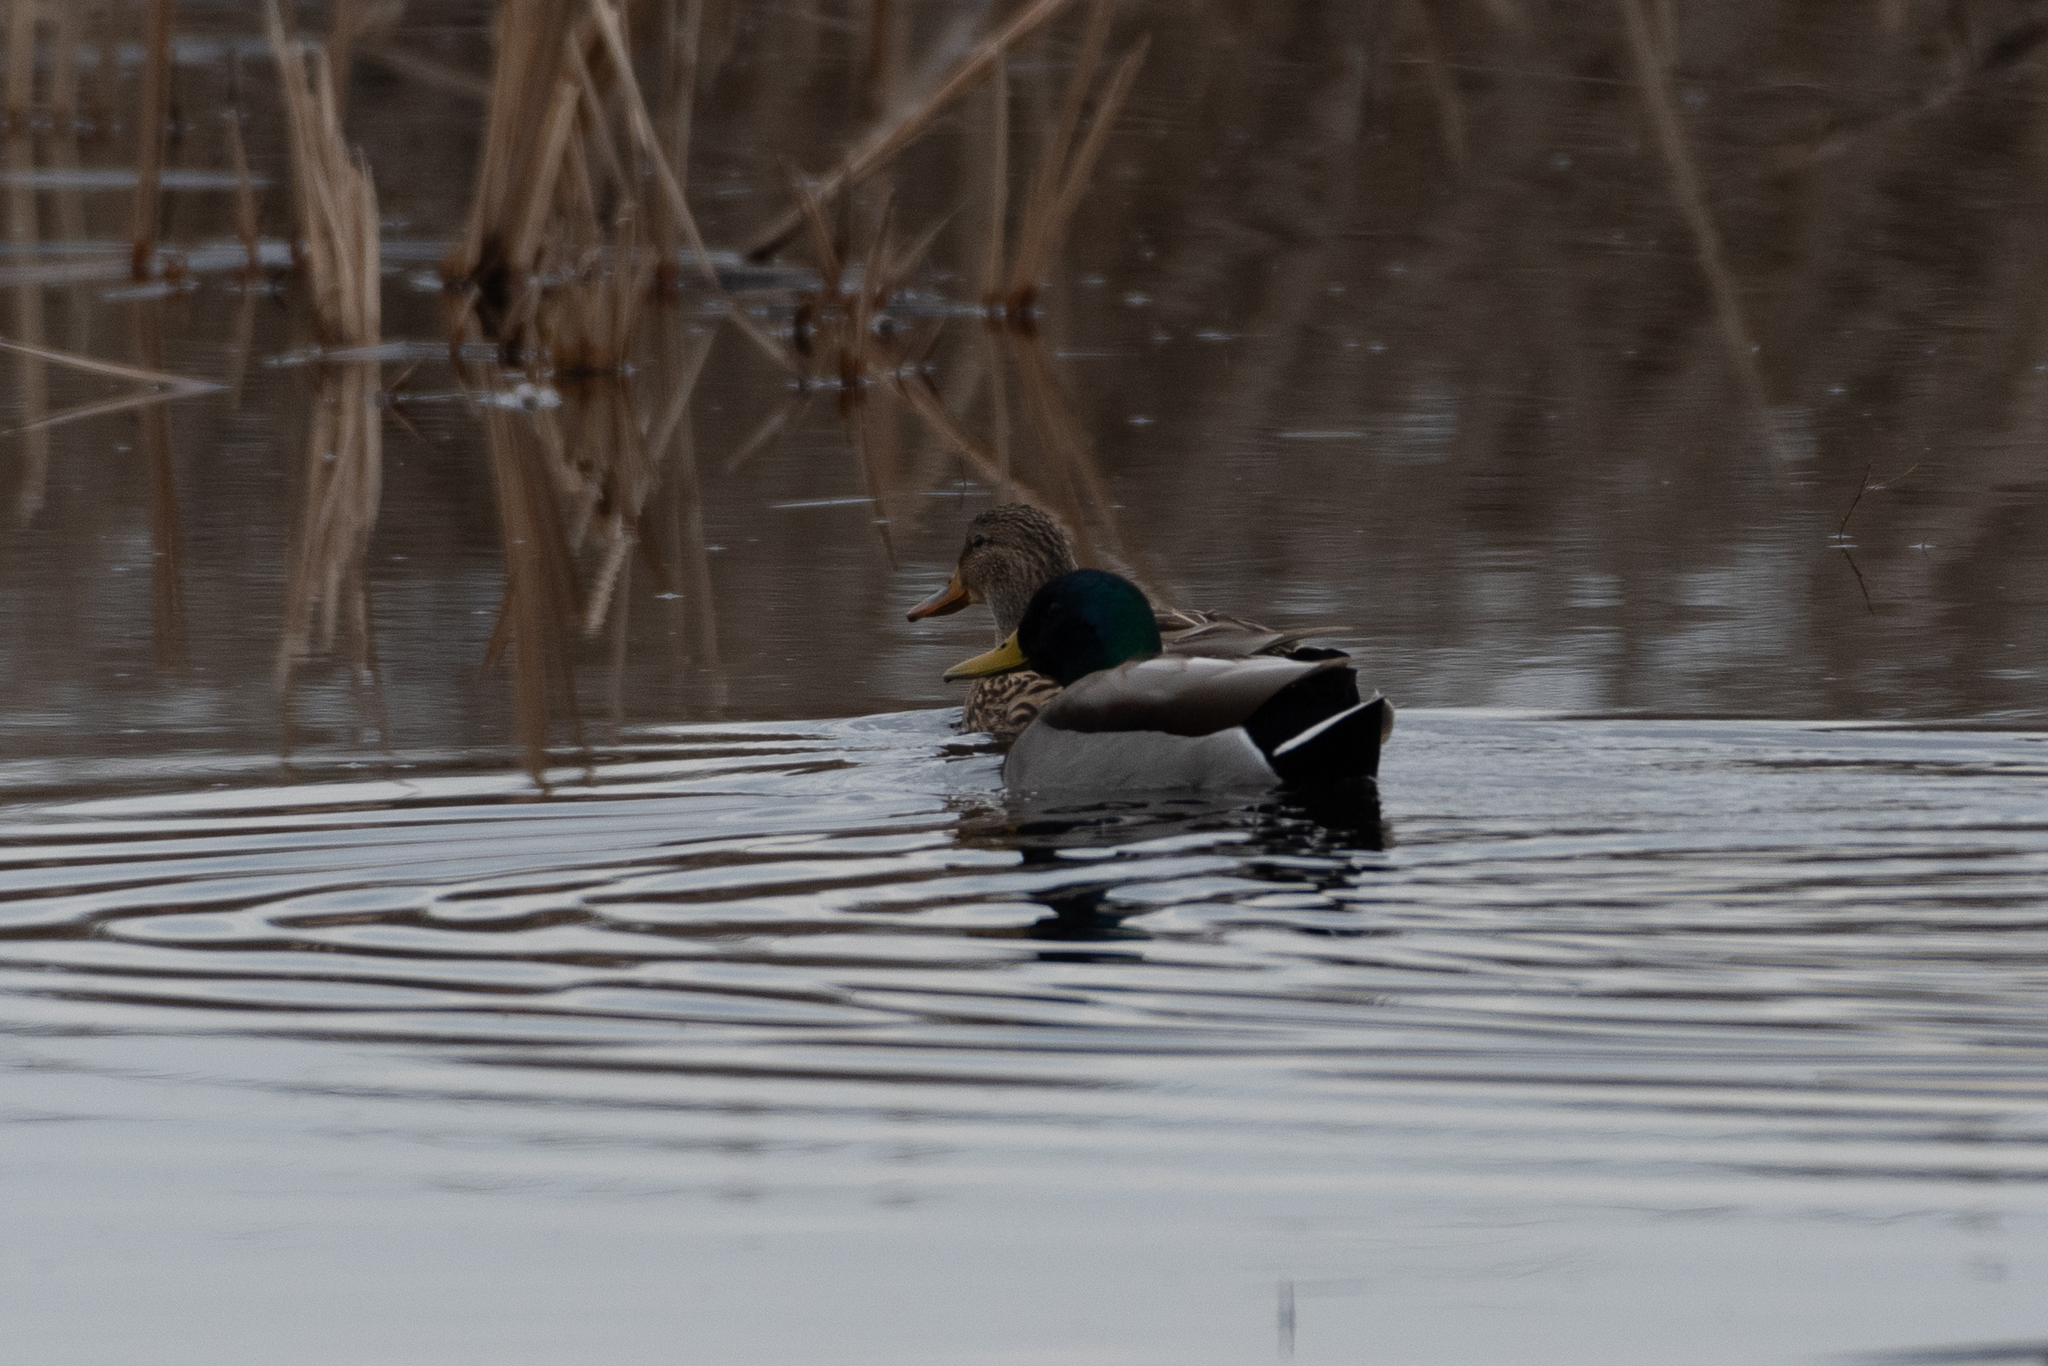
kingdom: Animalia
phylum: Chordata
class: Aves
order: Anseriformes
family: Anatidae
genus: Anas
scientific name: Anas platyrhynchos
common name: Mallard
